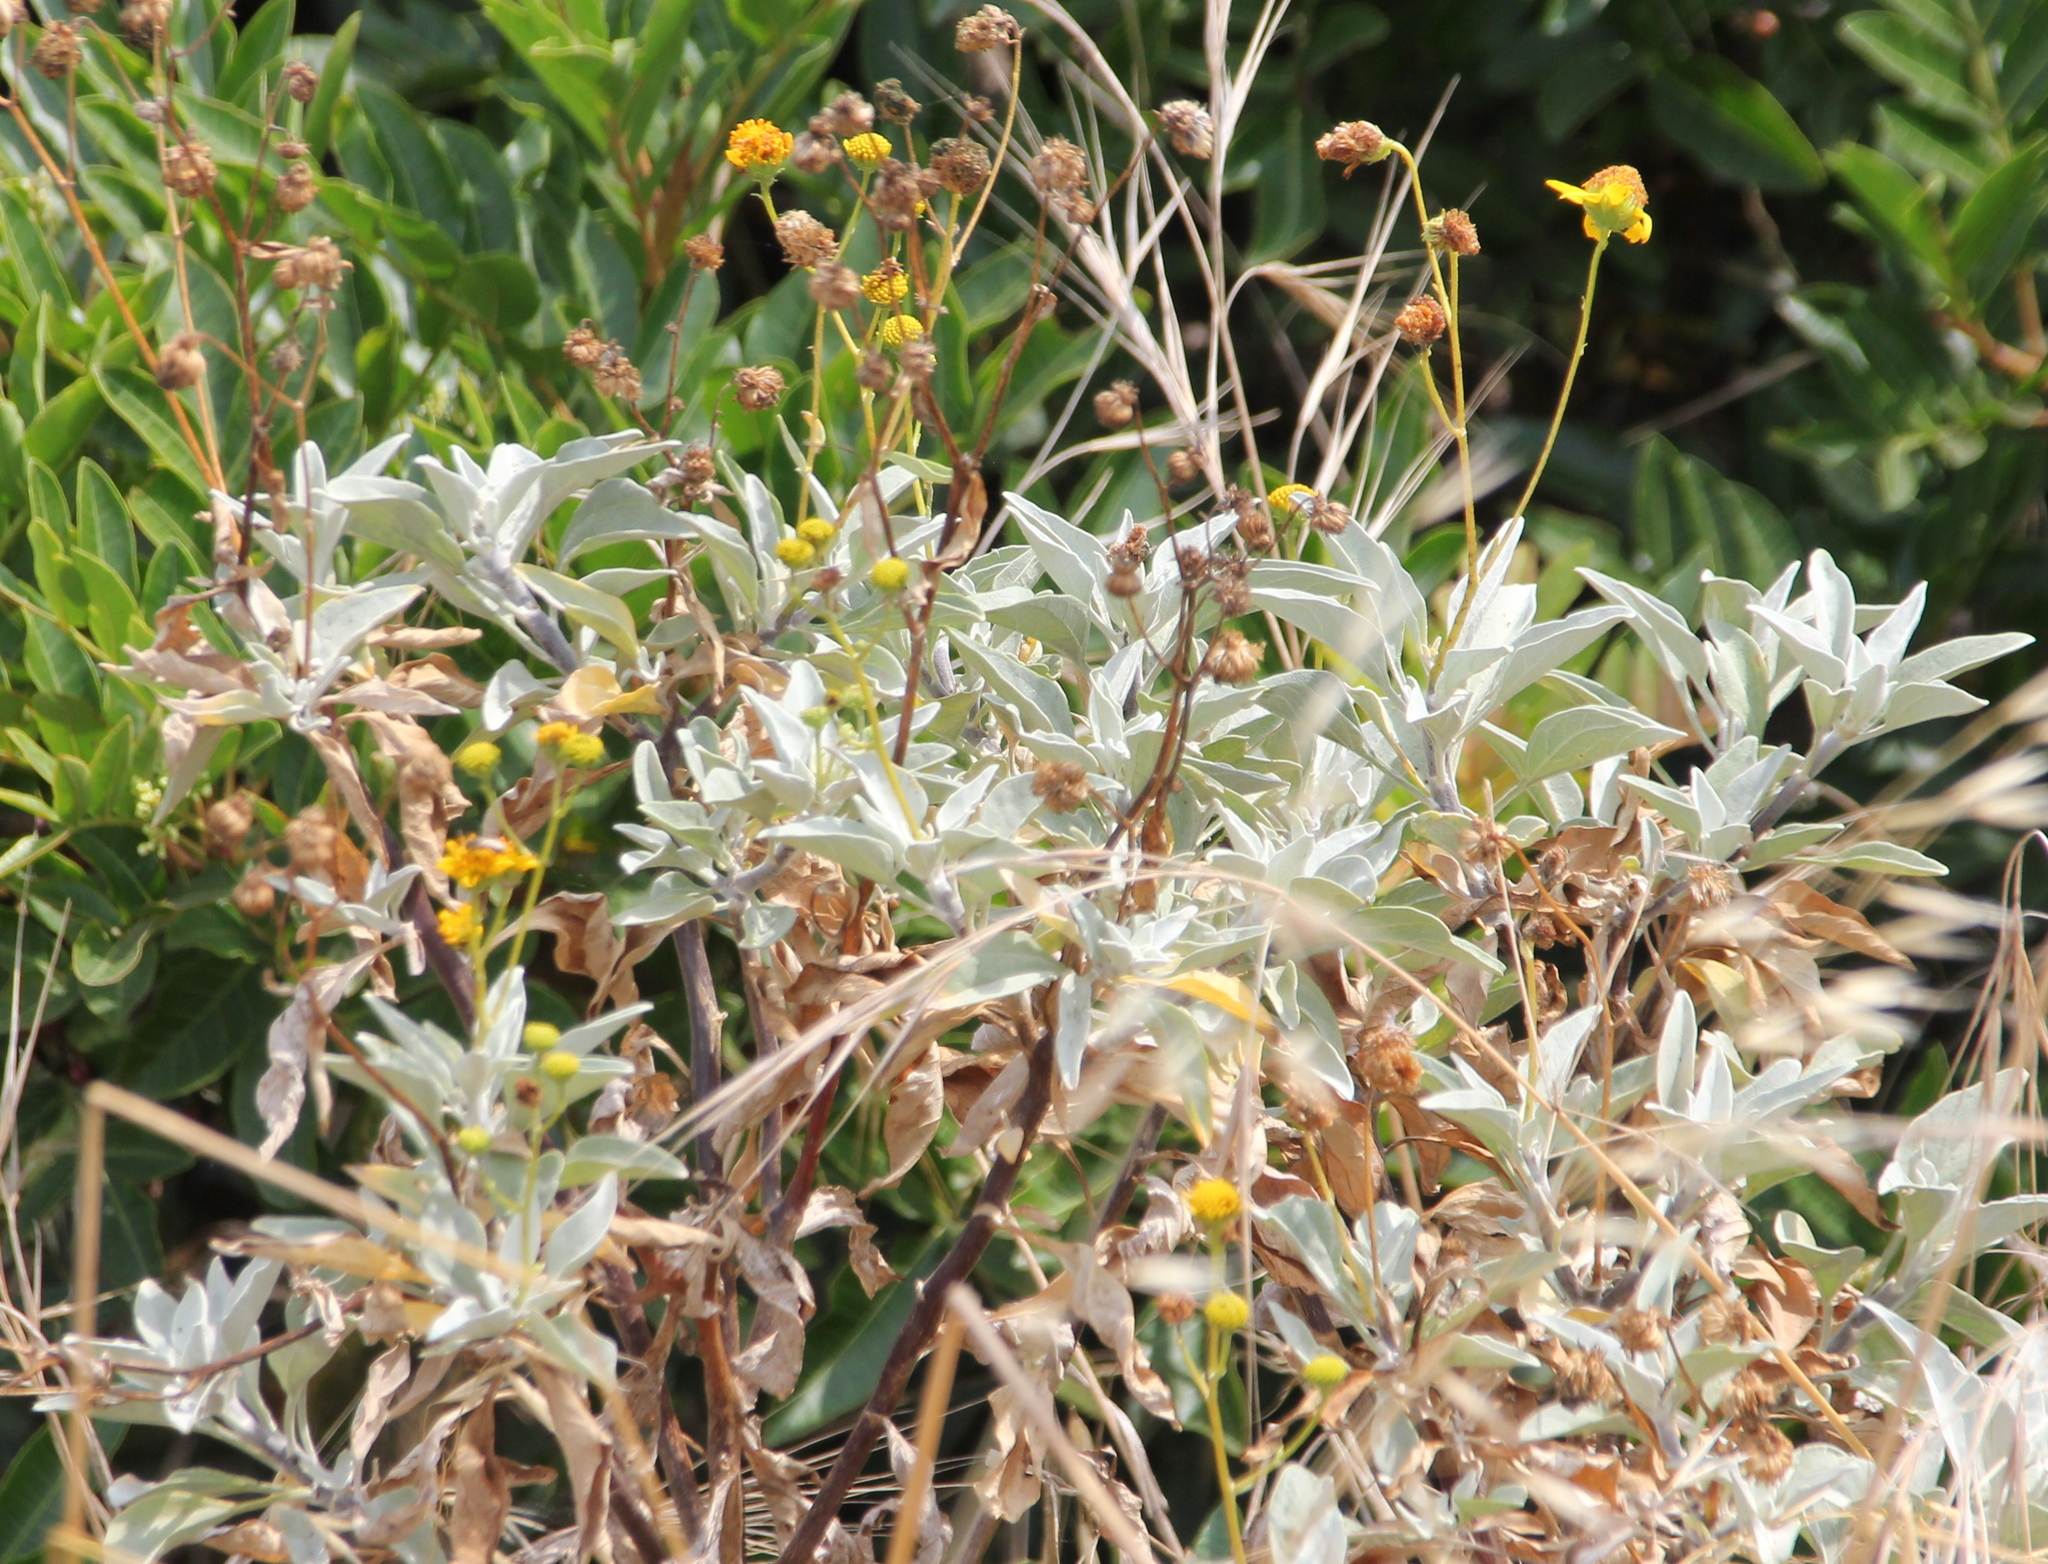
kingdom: Plantae
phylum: Tracheophyta
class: Magnoliopsida
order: Asterales
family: Asteraceae
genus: Encelia
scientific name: Encelia farinosa
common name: Brittlebush
